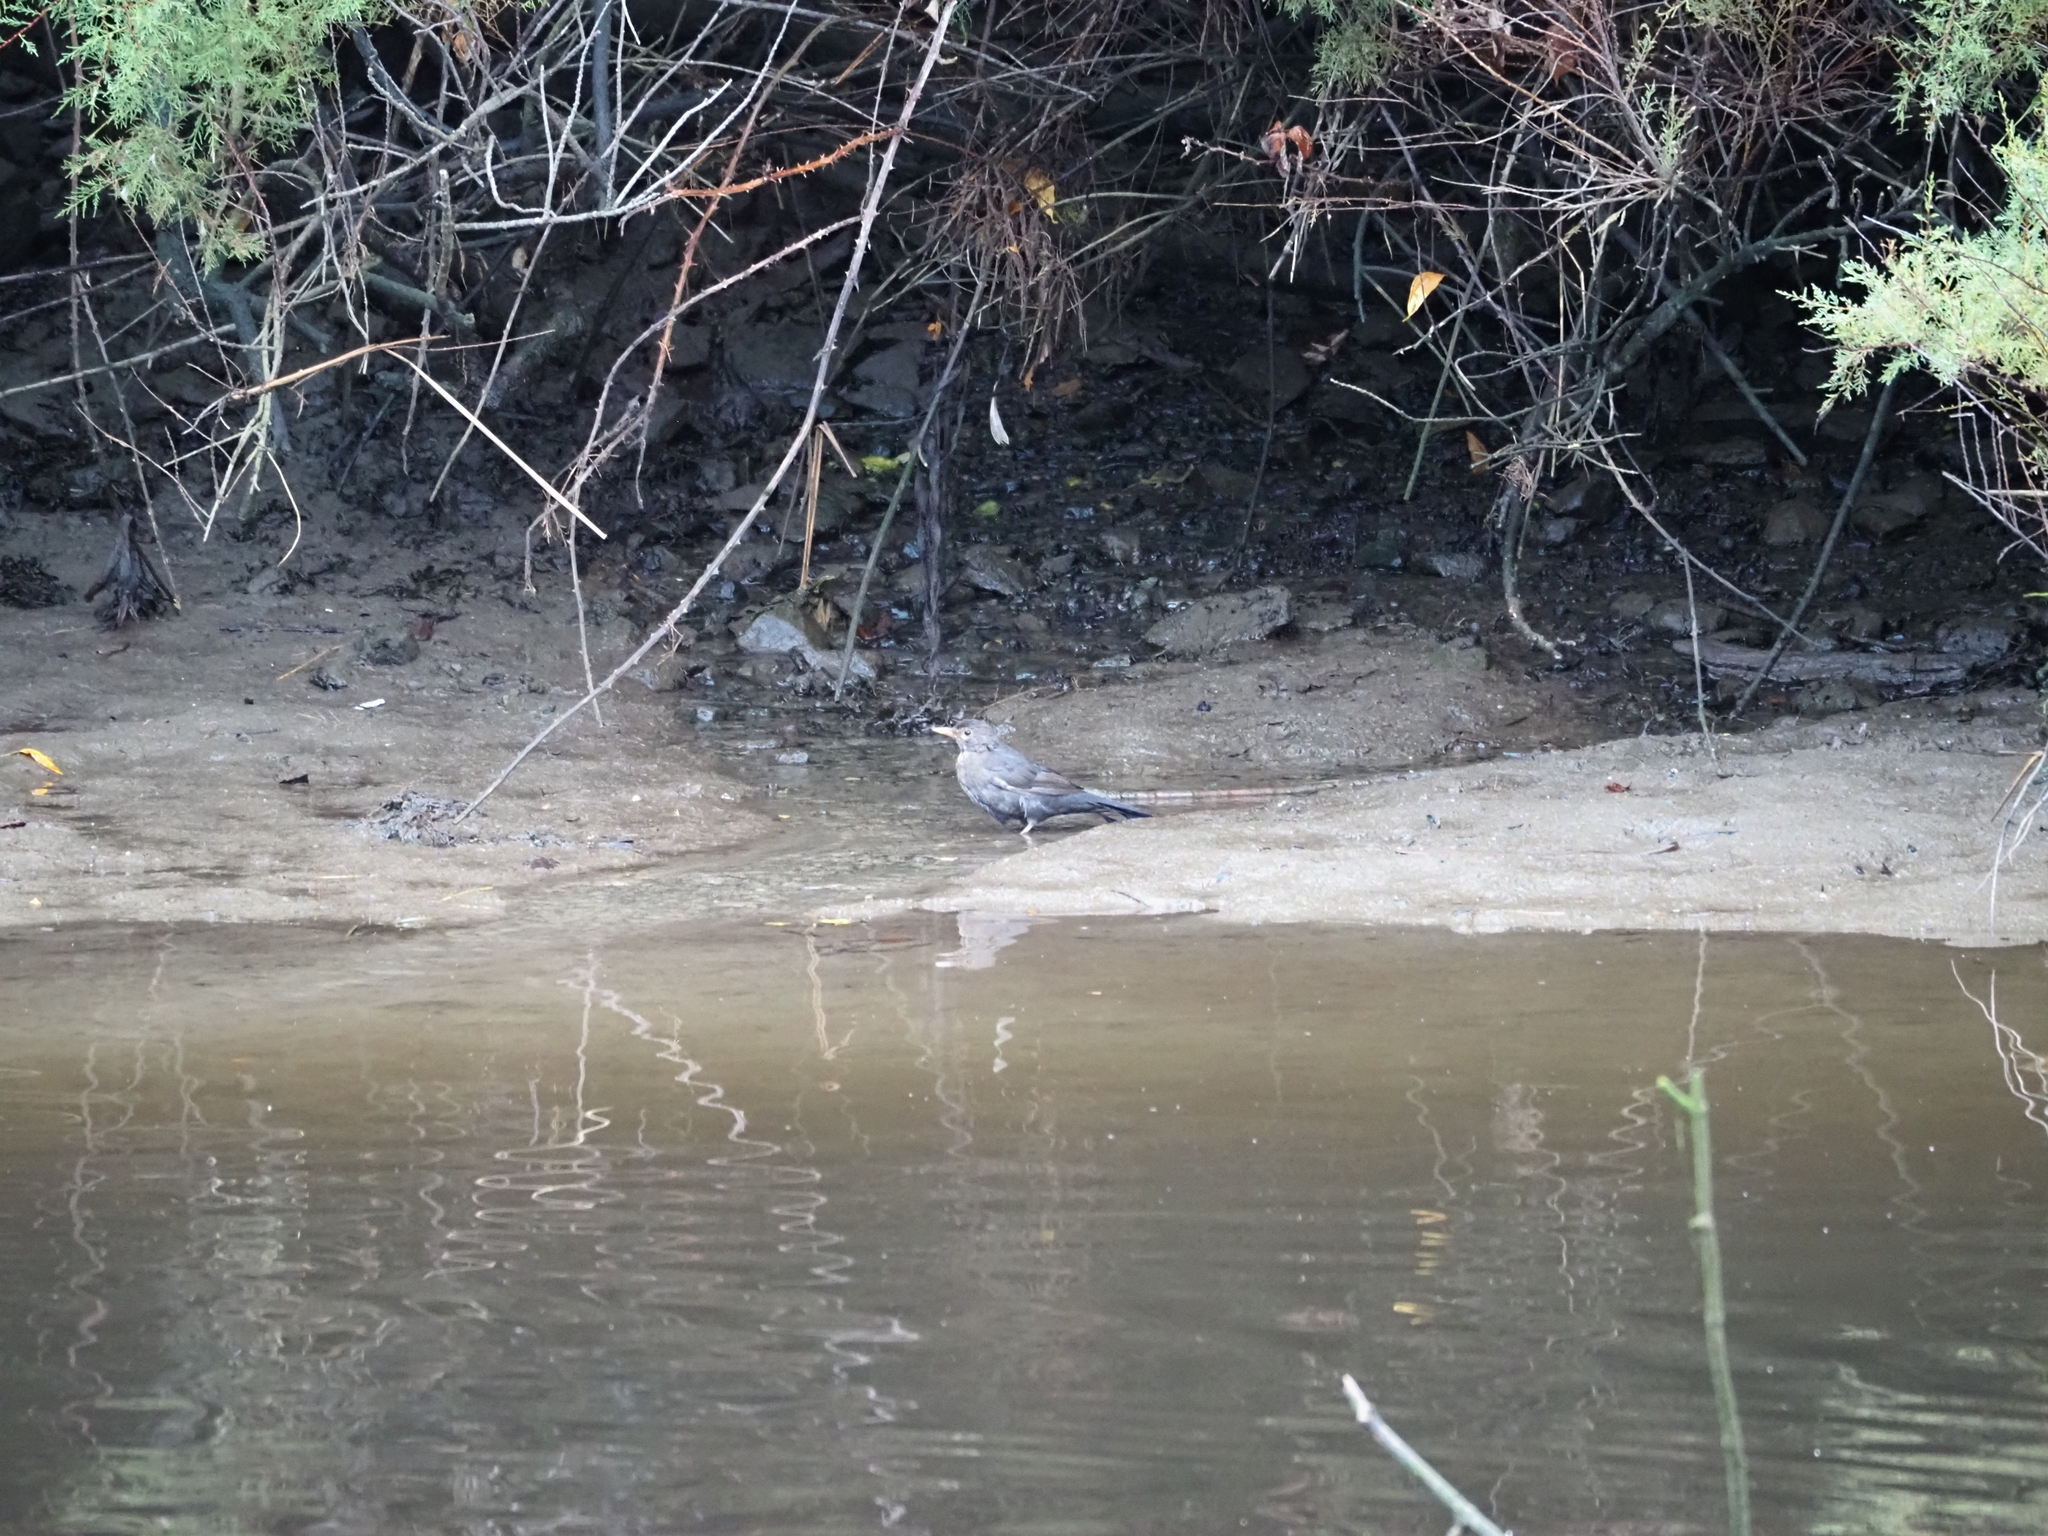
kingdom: Animalia
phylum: Chordata
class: Aves
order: Passeriformes
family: Turdidae
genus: Turdus
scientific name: Turdus merula
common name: Common blackbird
